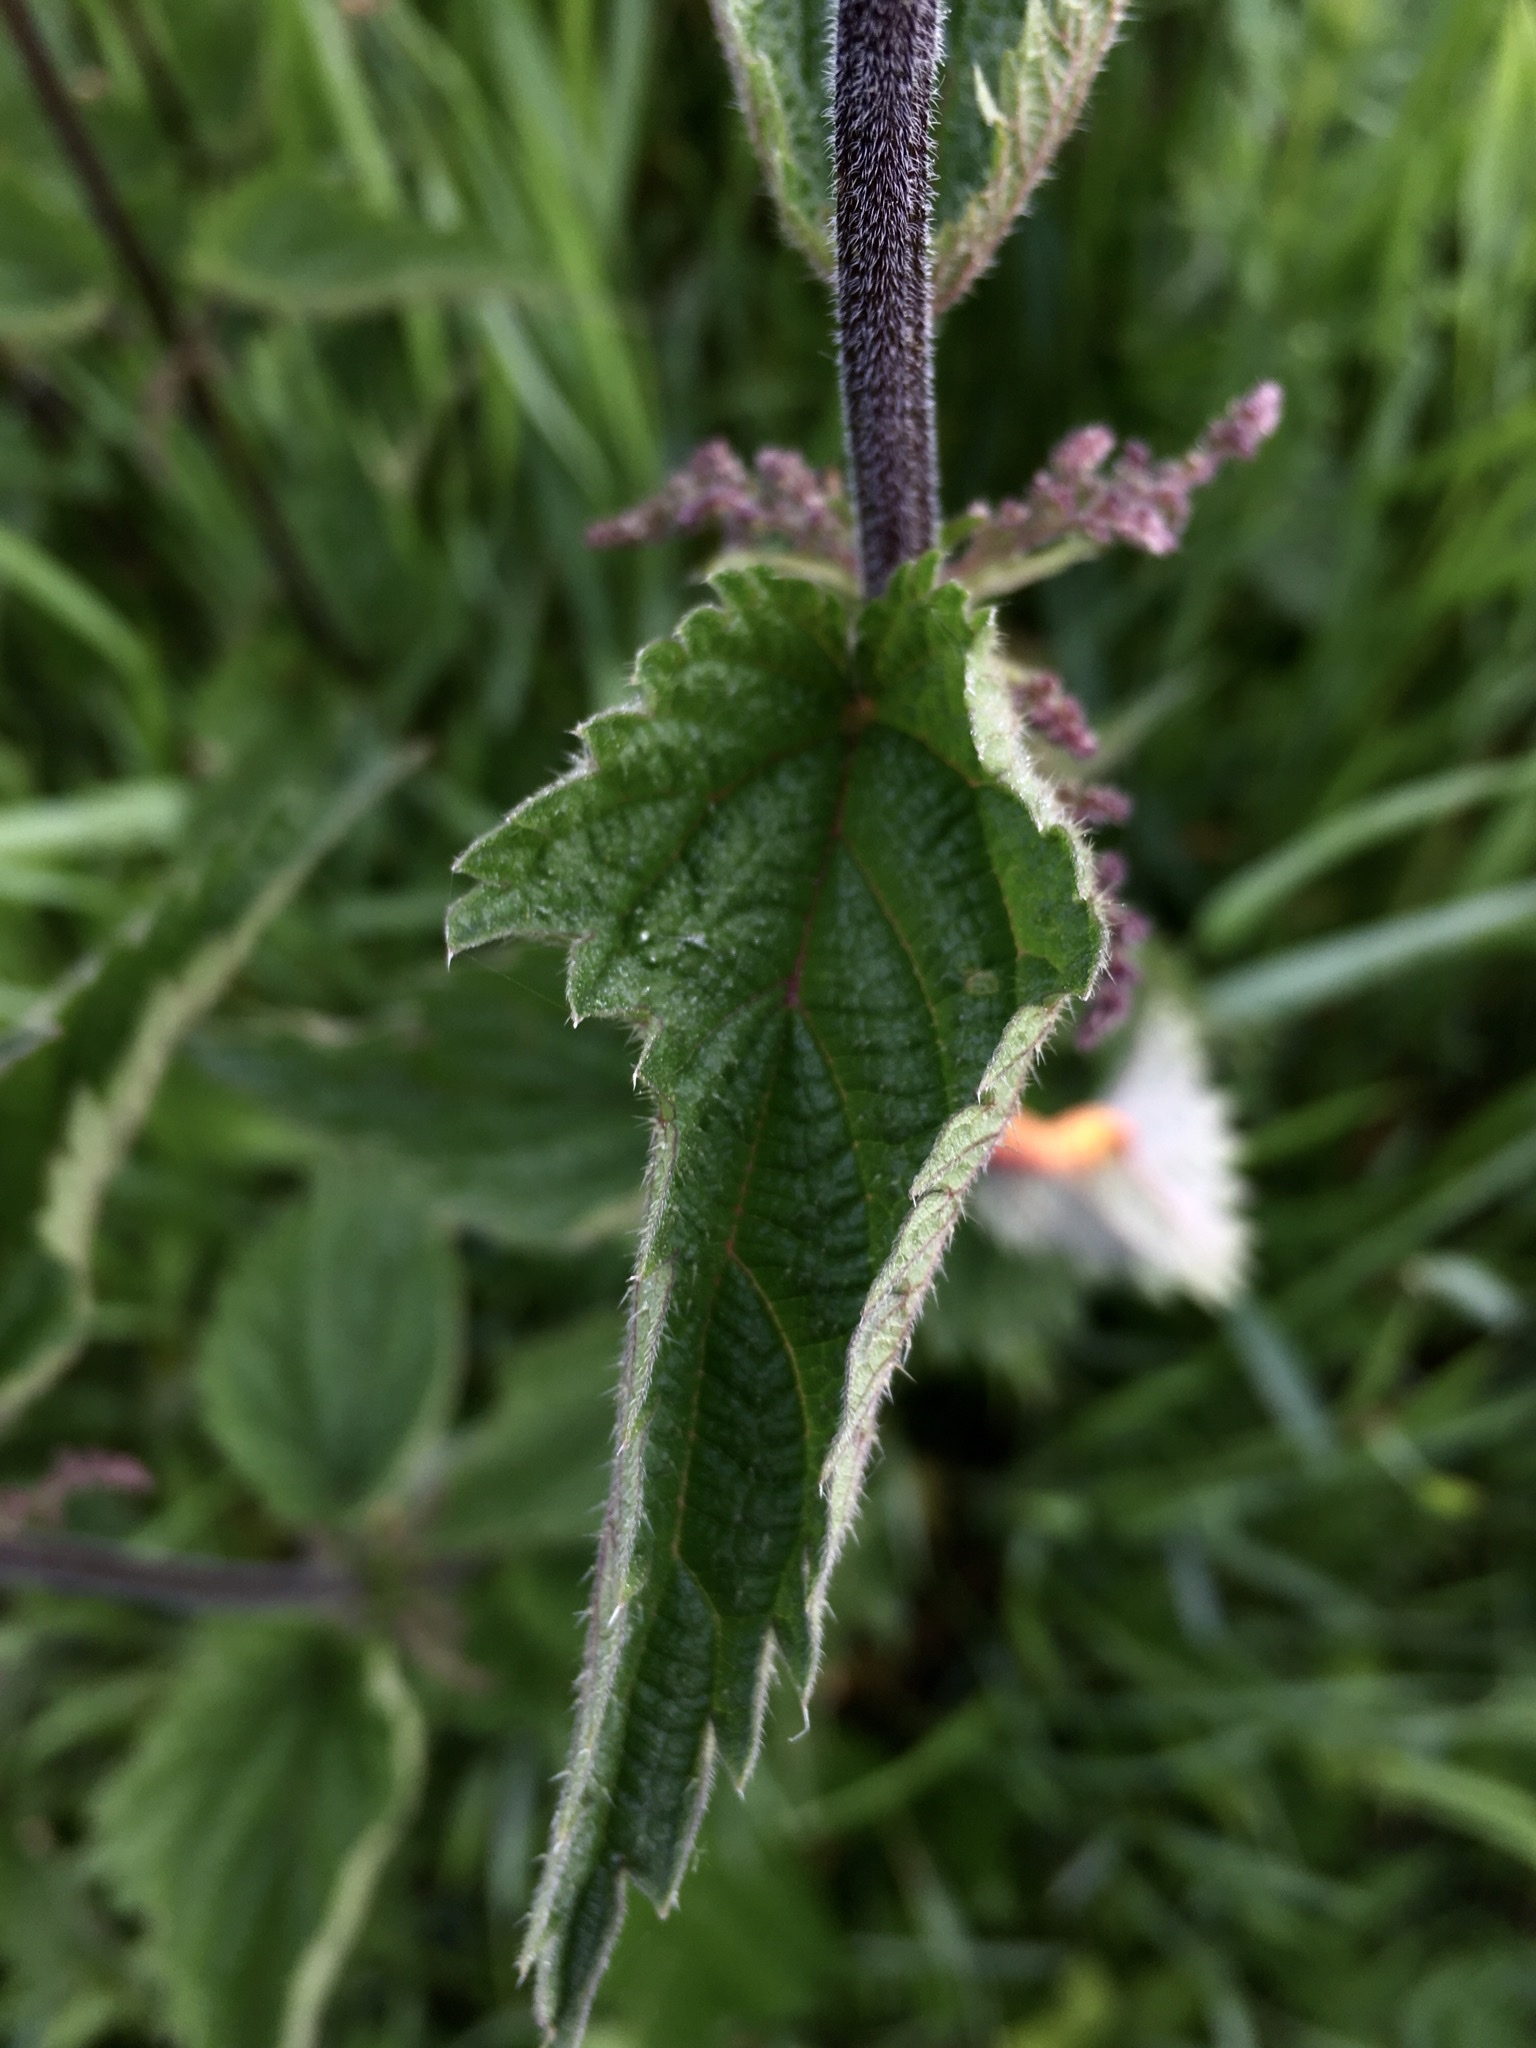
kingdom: Plantae
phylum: Tracheophyta
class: Magnoliopsida
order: Rosales
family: Urticaceae
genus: Urtica
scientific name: Urtica dioica
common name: Common nettle
